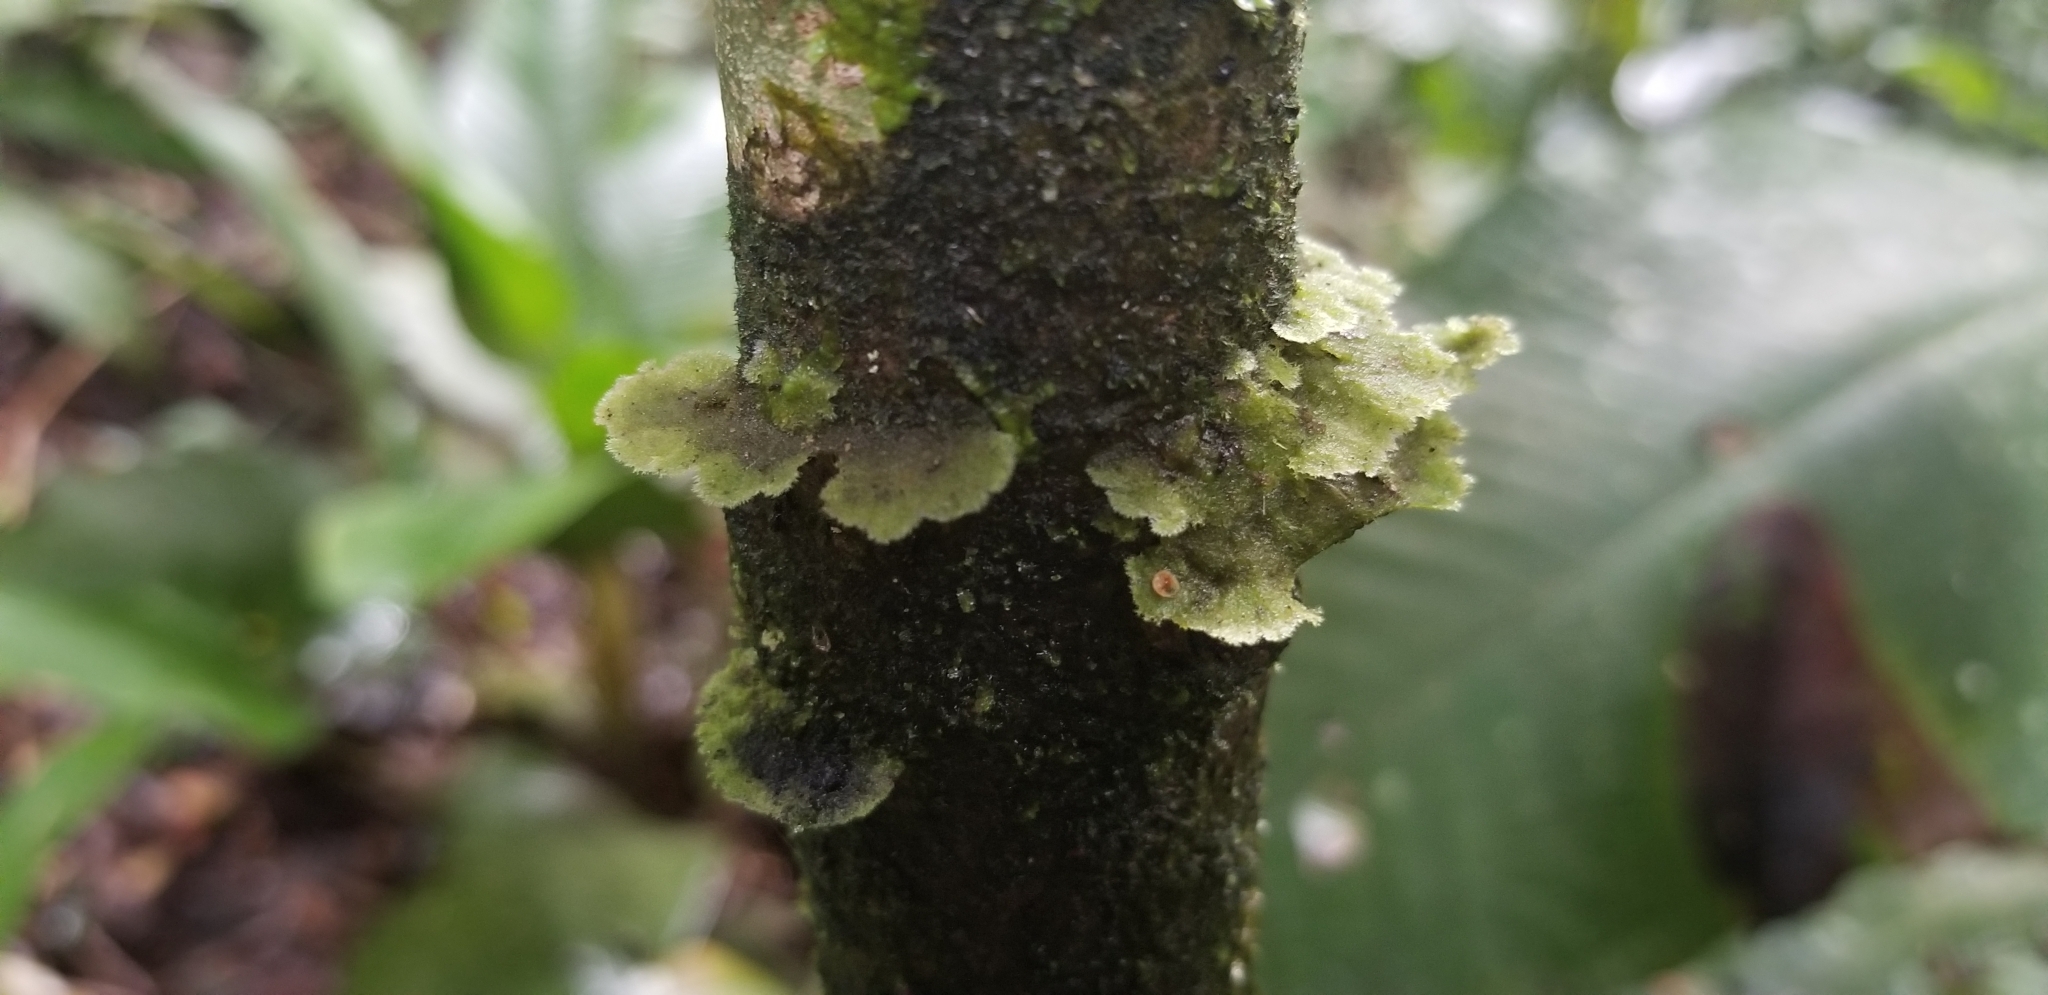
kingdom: Fungi
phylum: Ascomycota
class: Lecanoromycetes
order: Ostropales
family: Coenogoniaceae
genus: Coenogonium
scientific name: Coenogonium
